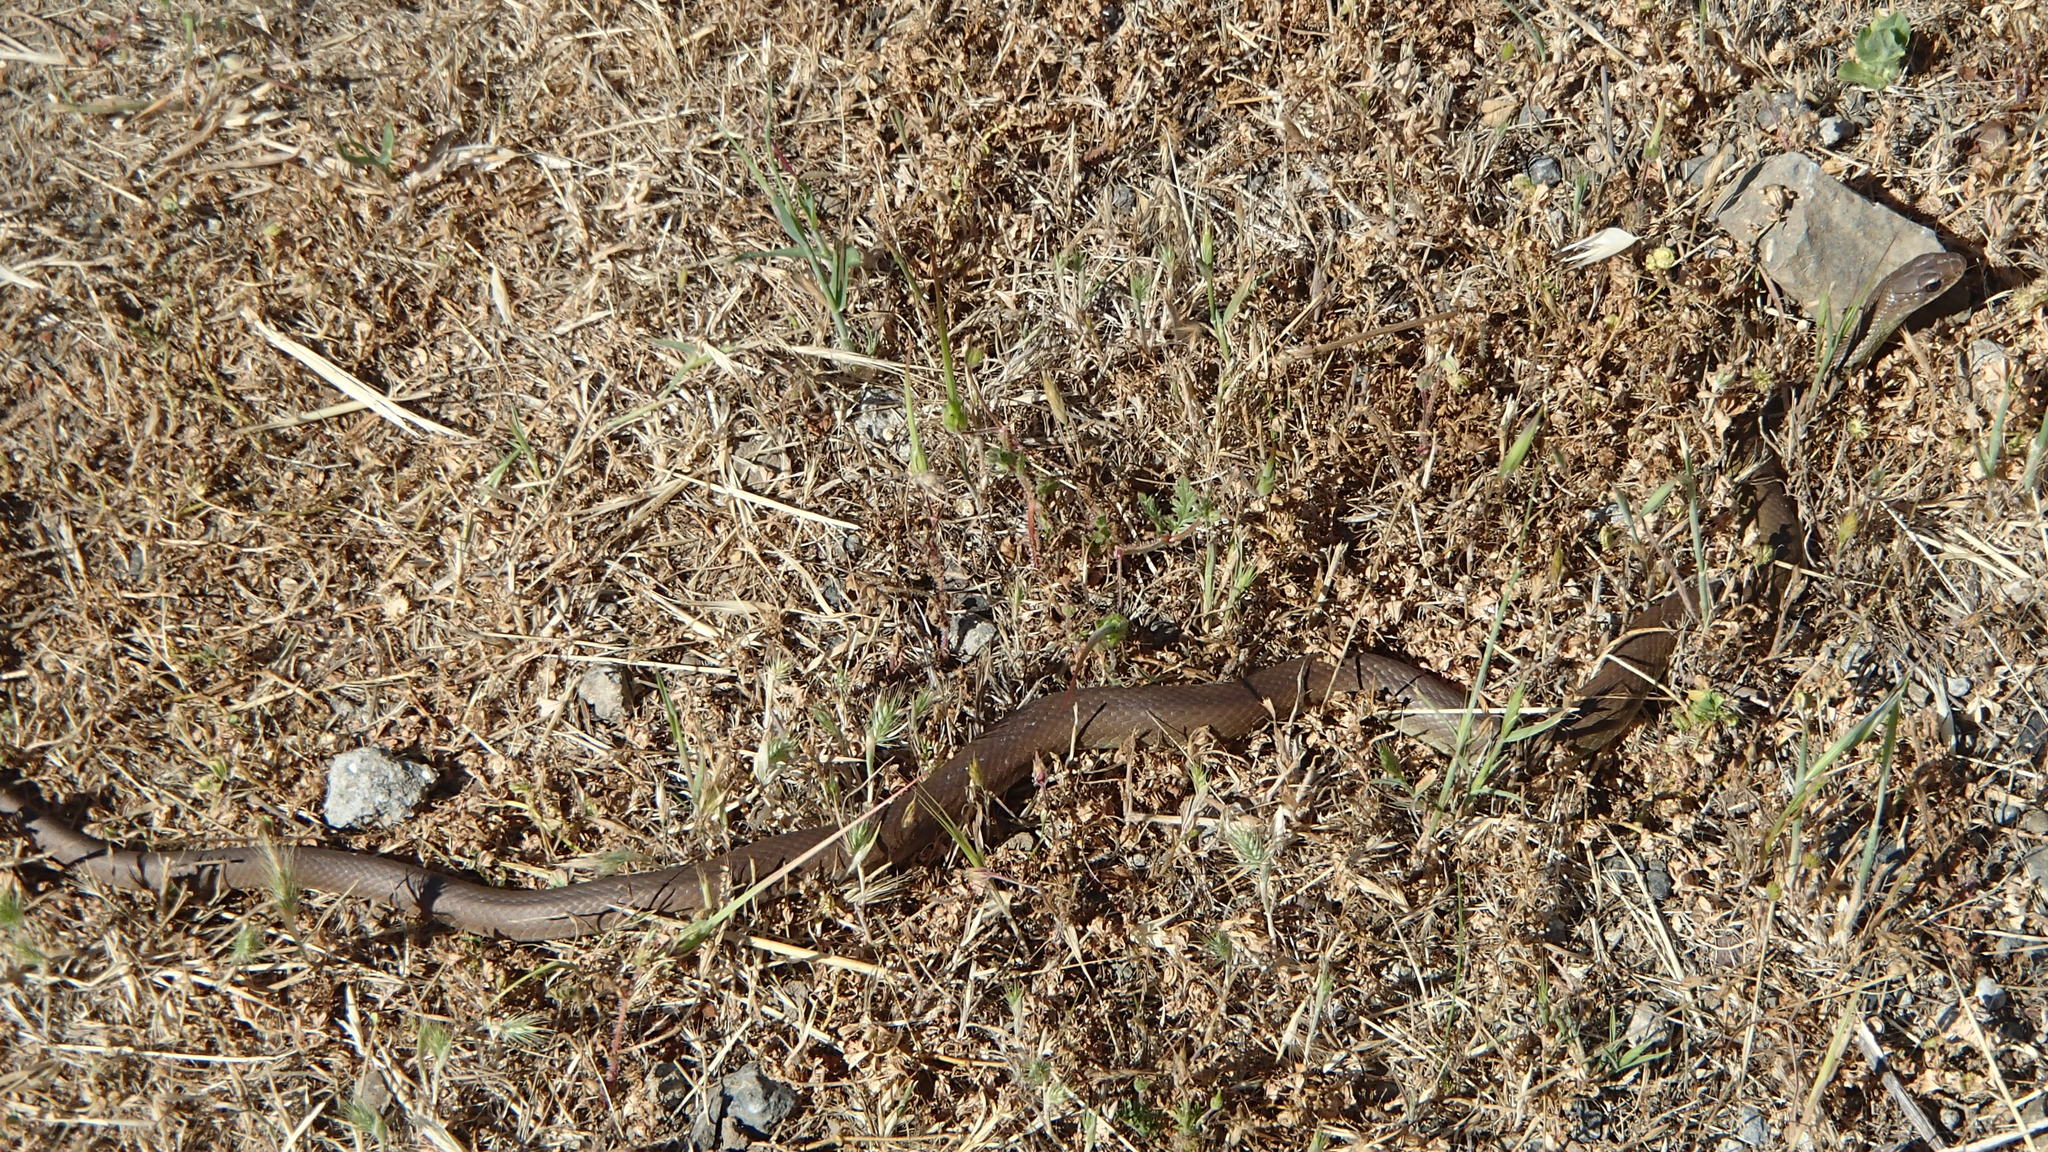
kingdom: Animalia
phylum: Chordata
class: Squamata
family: Colubridae
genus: Coluber
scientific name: Coluber constrictor
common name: Eastern racer
